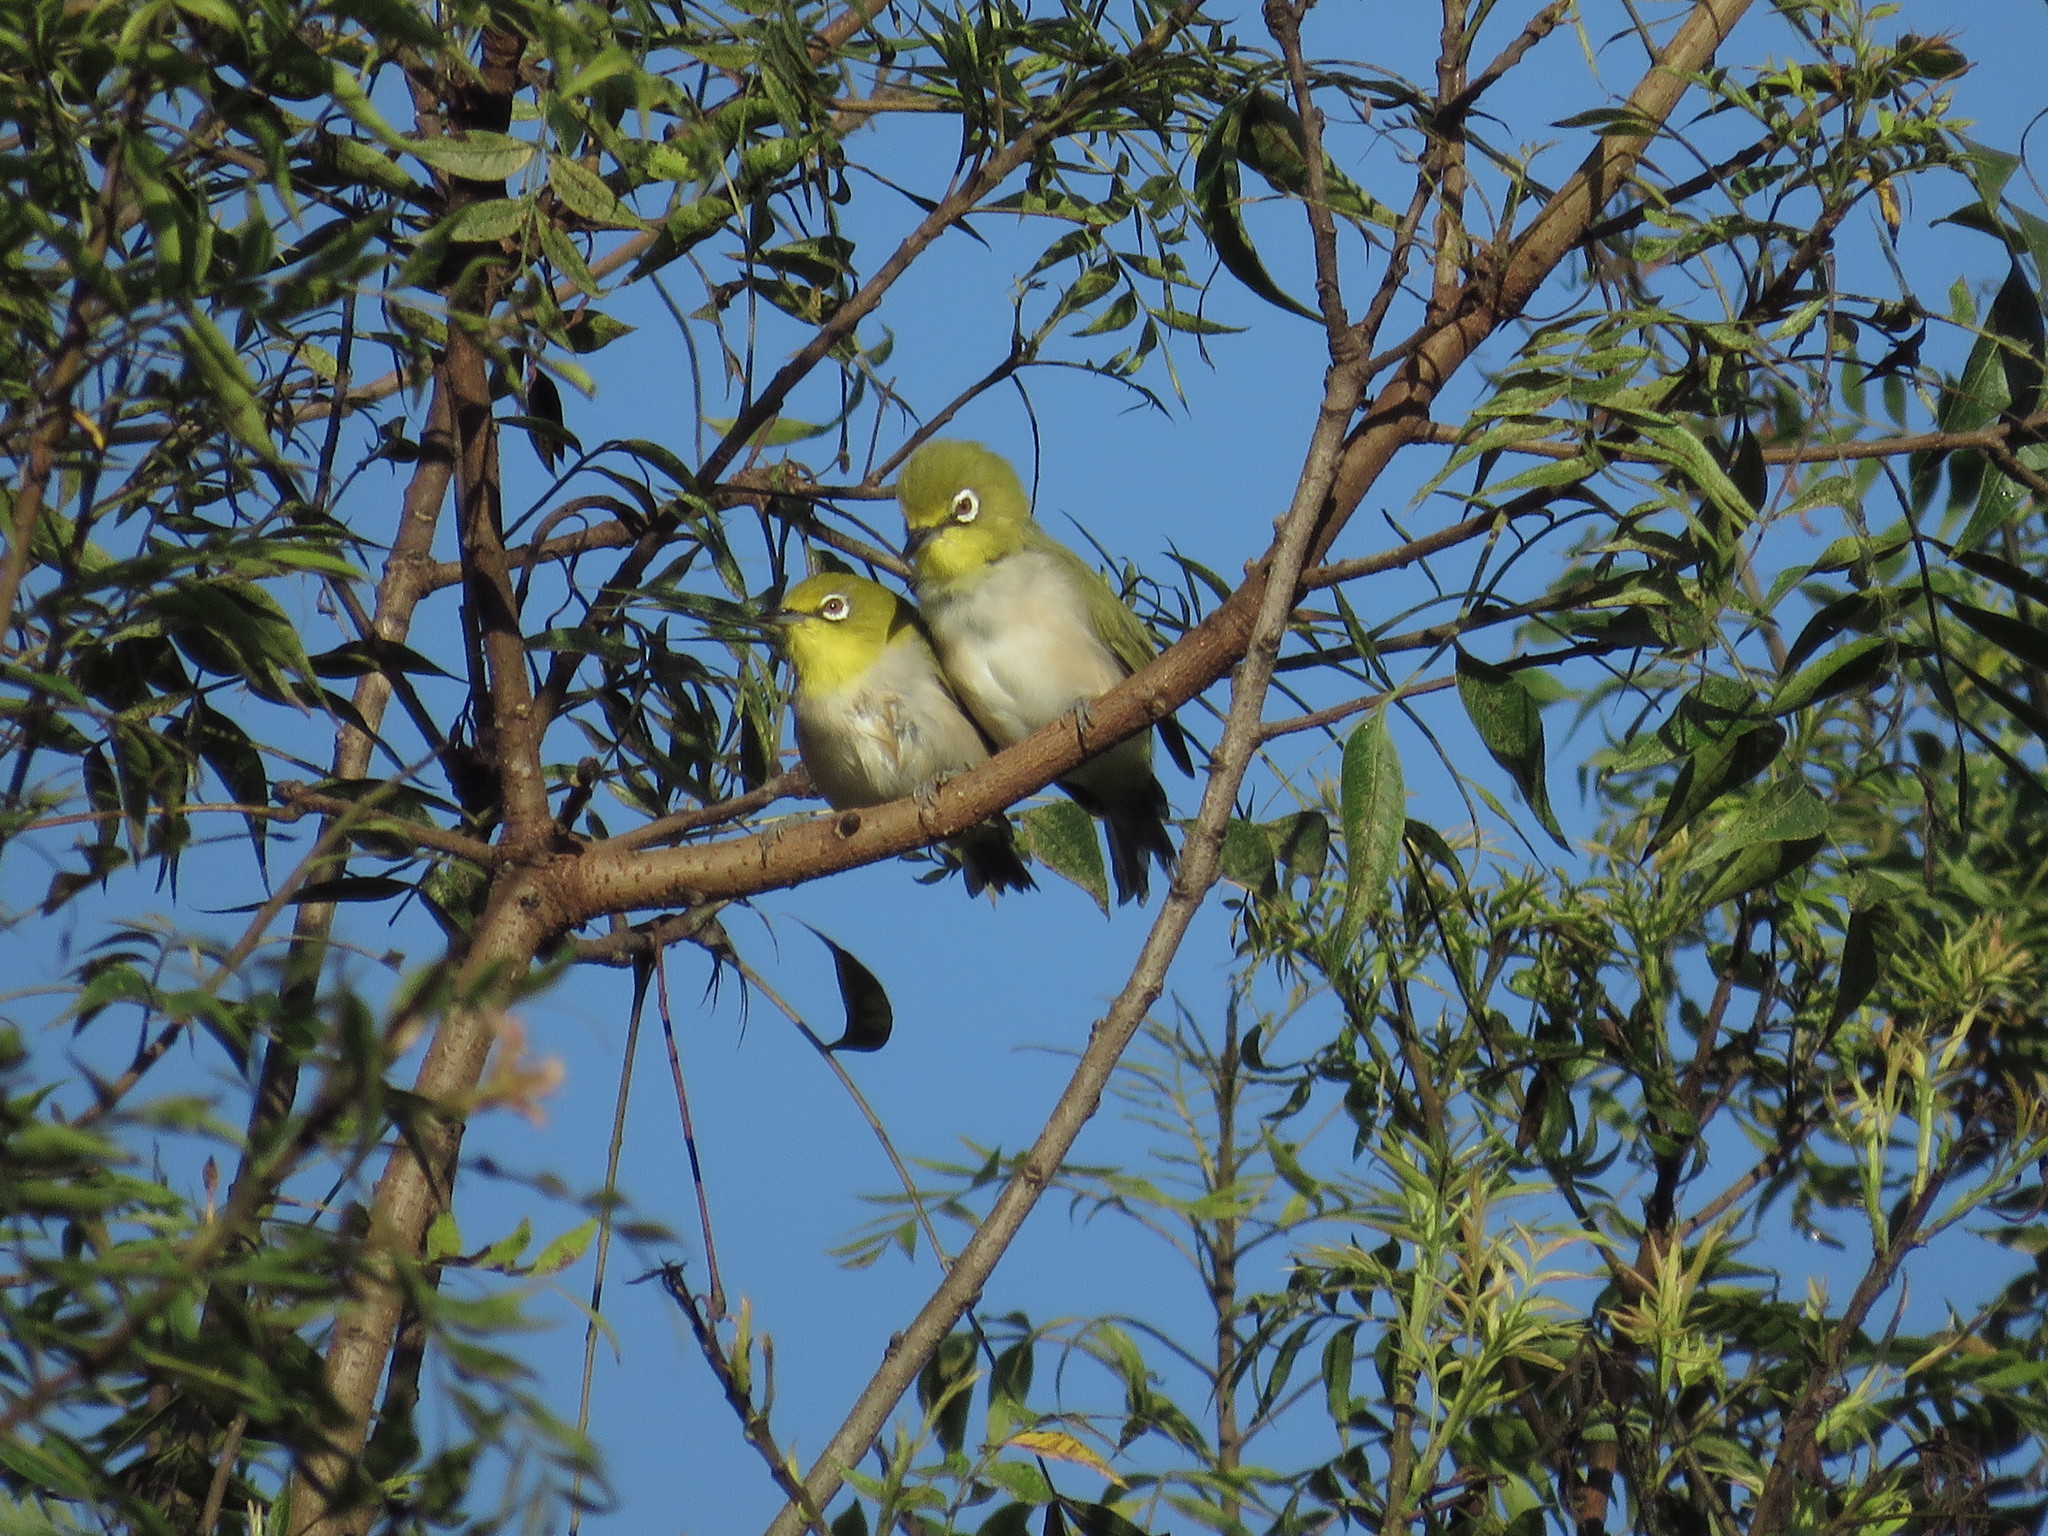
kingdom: Animalia
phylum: Chordata
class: Aves
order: Passeriformes
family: Zosteropidae
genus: Zosterops
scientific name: Zosterops simplex
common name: Swinhoe's white-eye
